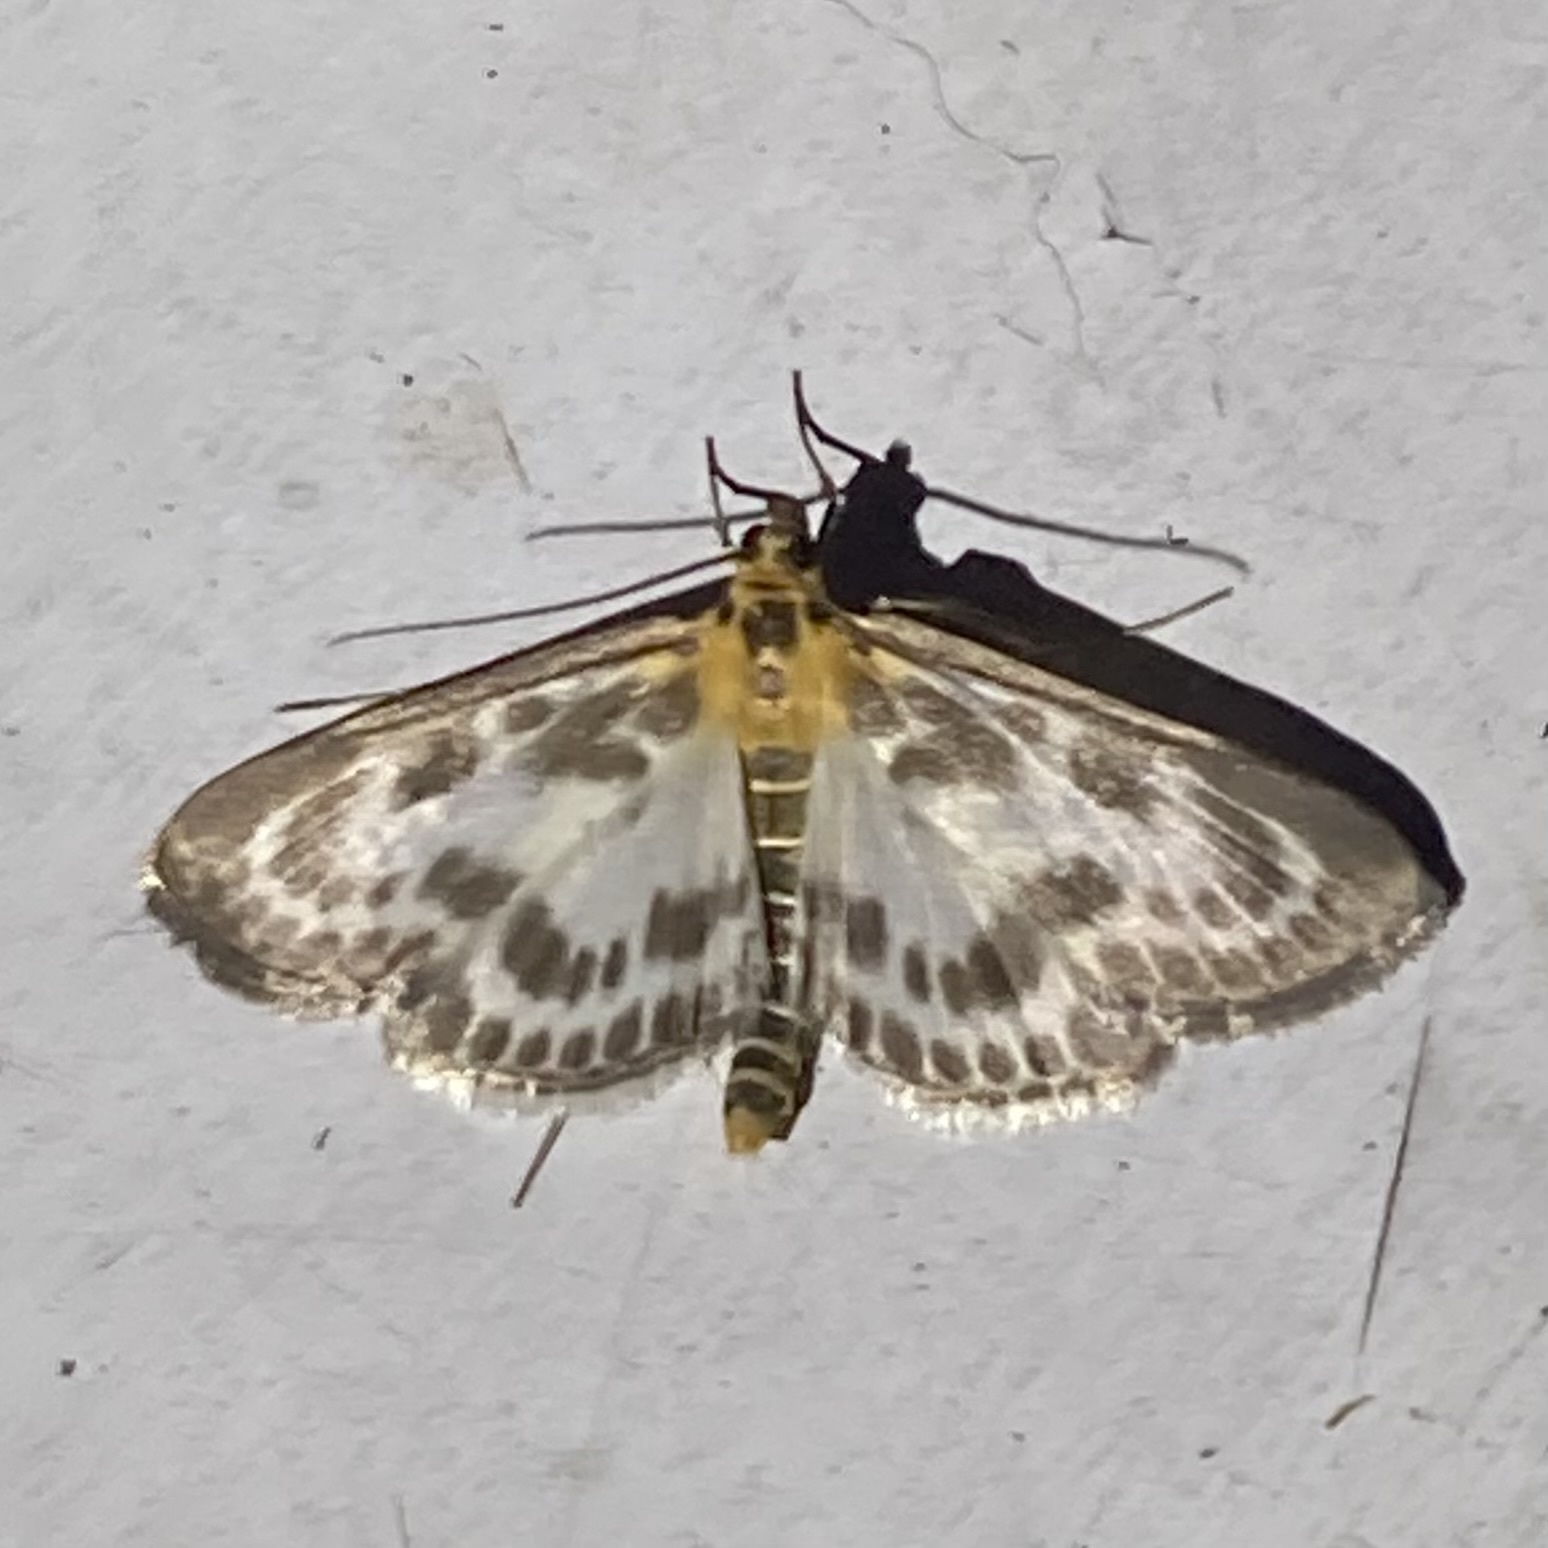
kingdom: Animalia
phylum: Arthropoda
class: Insecta
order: Lepidoptera
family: Crambidae
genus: Anania
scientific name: Anania hortulata
